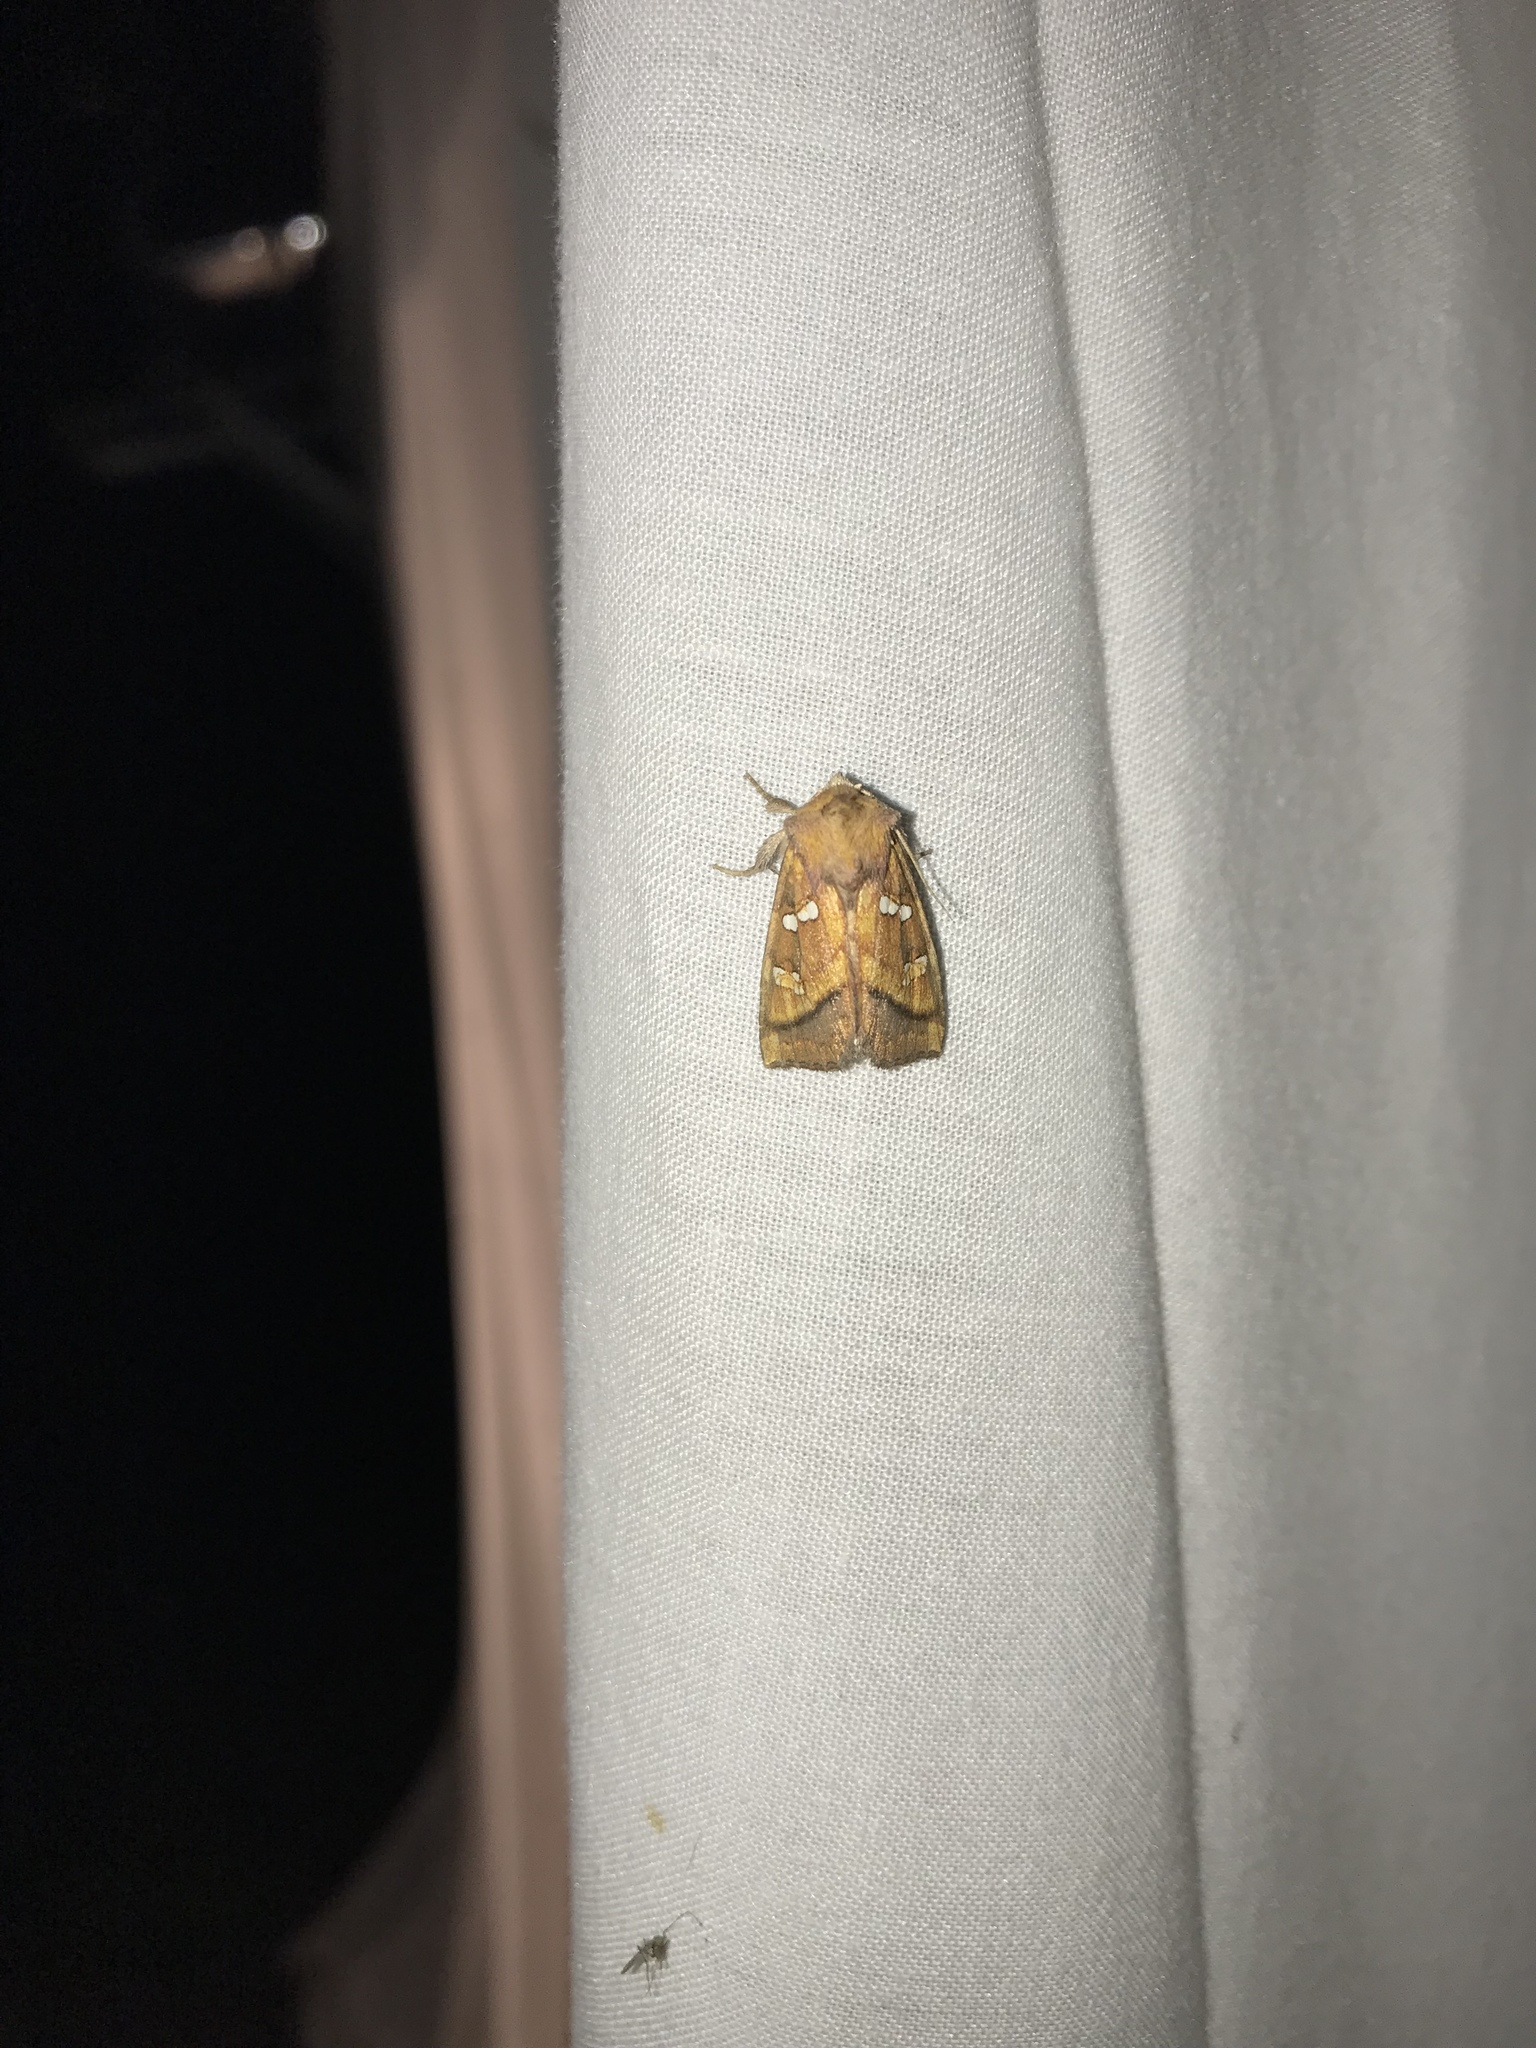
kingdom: Animalia
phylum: Arthropoda
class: Insecta
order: Lepidoptera
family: Noctuidae
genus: Papaipema
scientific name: Papaipema pterisii
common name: Bracken borer moth
